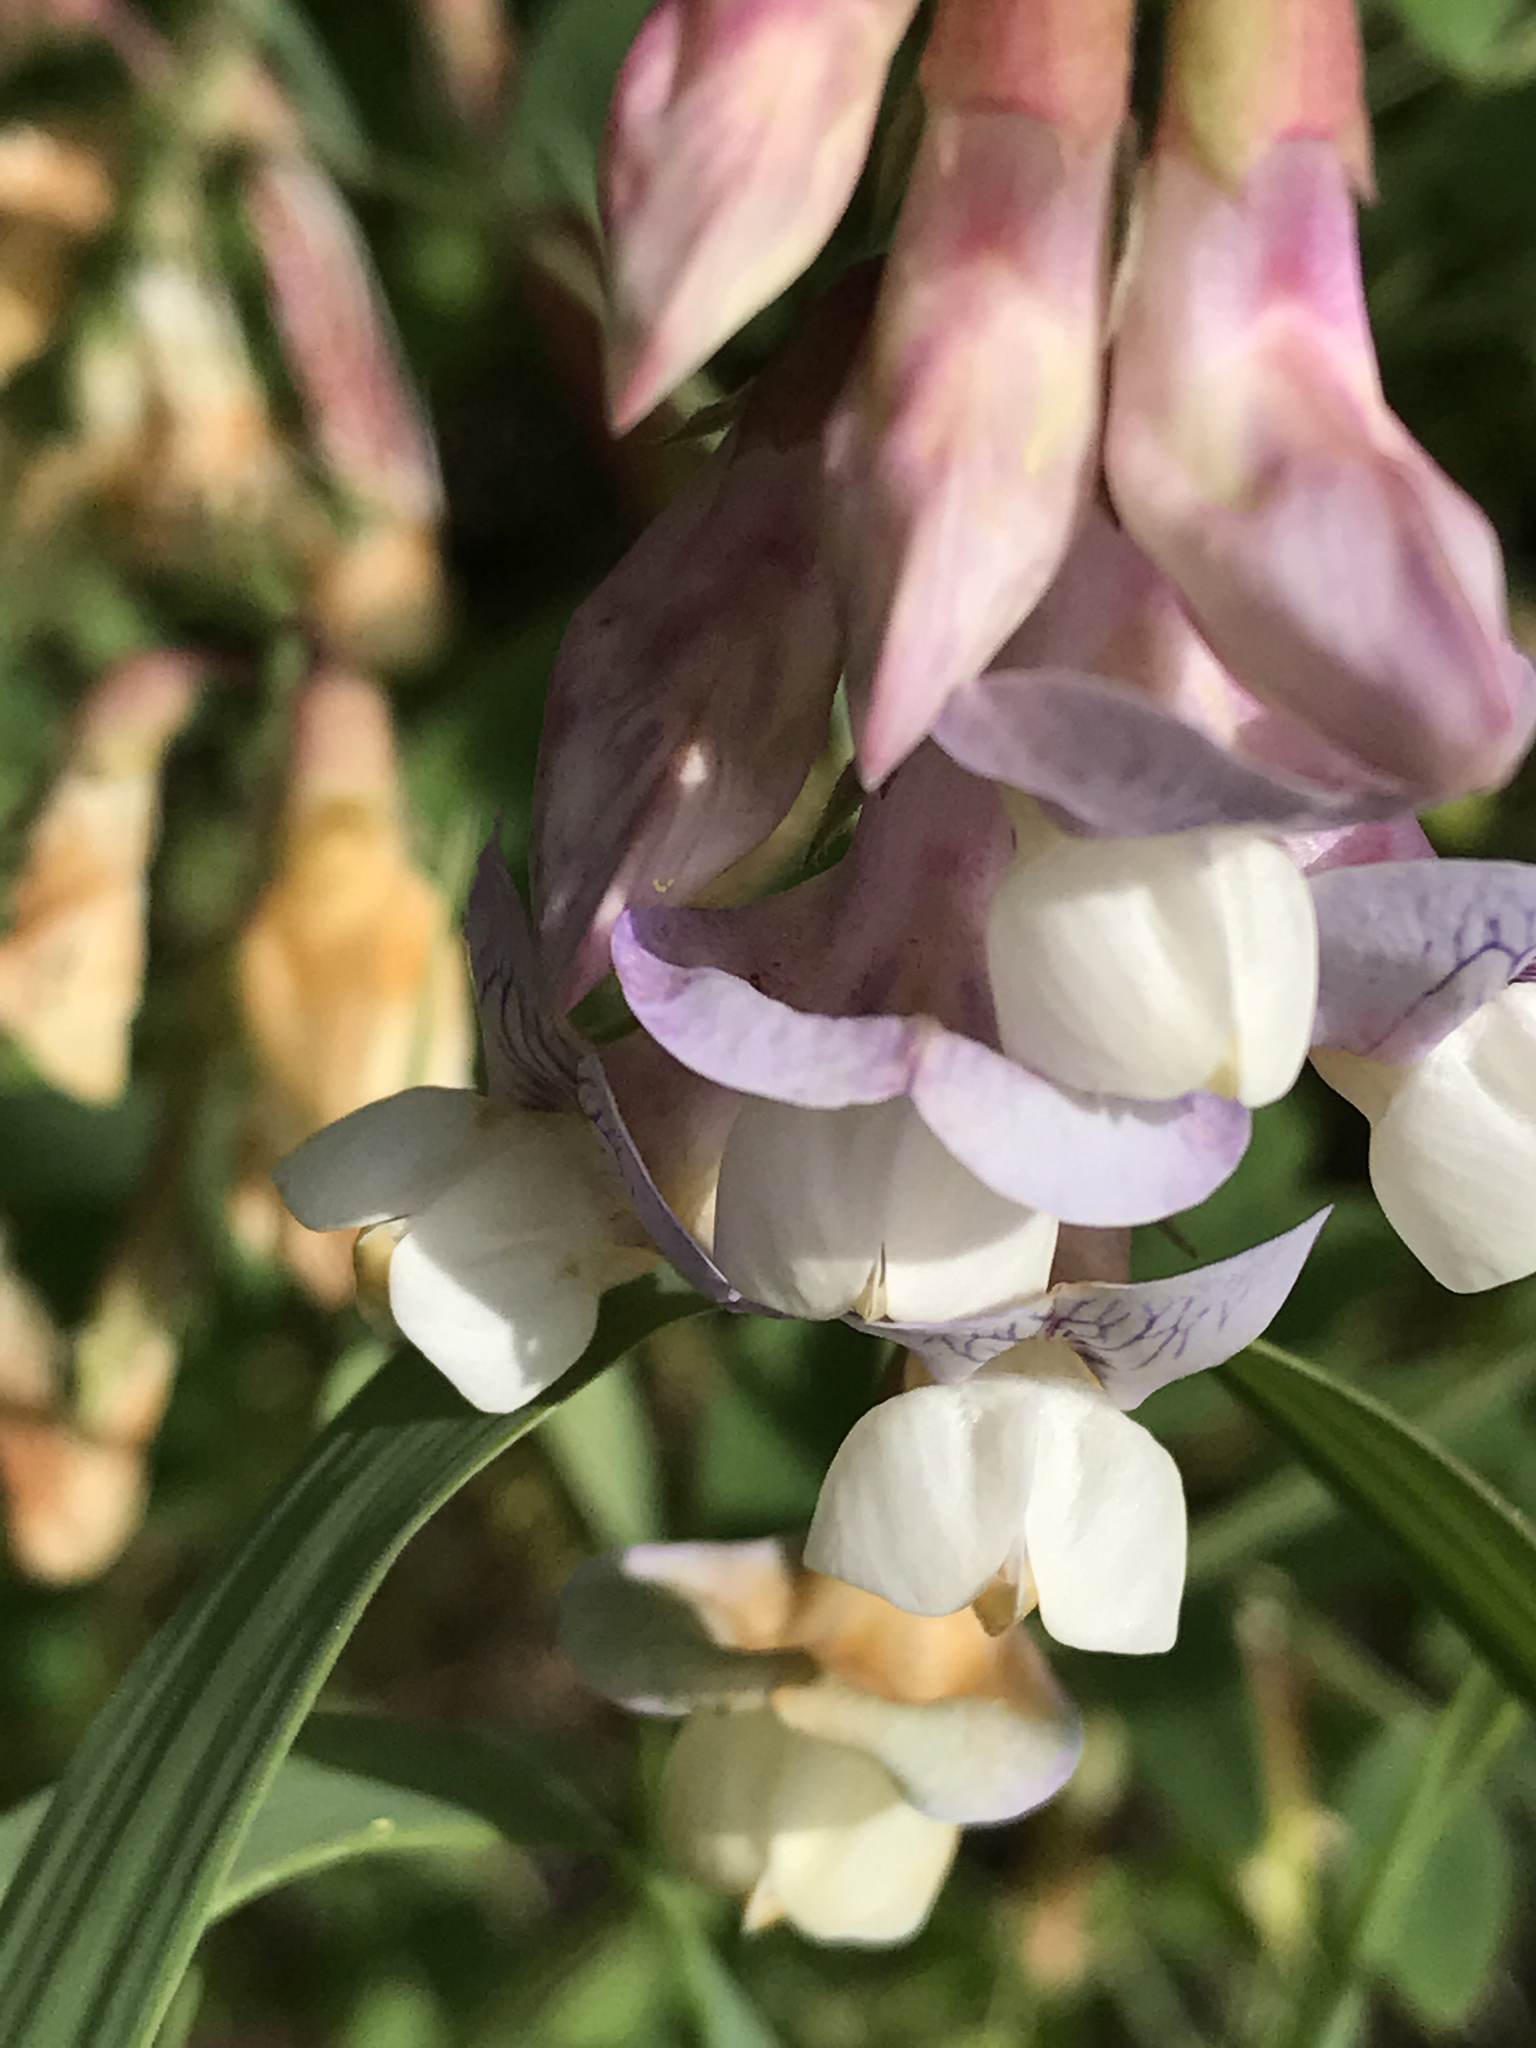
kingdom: Plantae
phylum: Tracheophyta
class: Magnoliopsida
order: Fabales
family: Fabaceae
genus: Lathyrus
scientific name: Lathyrus vestitus
